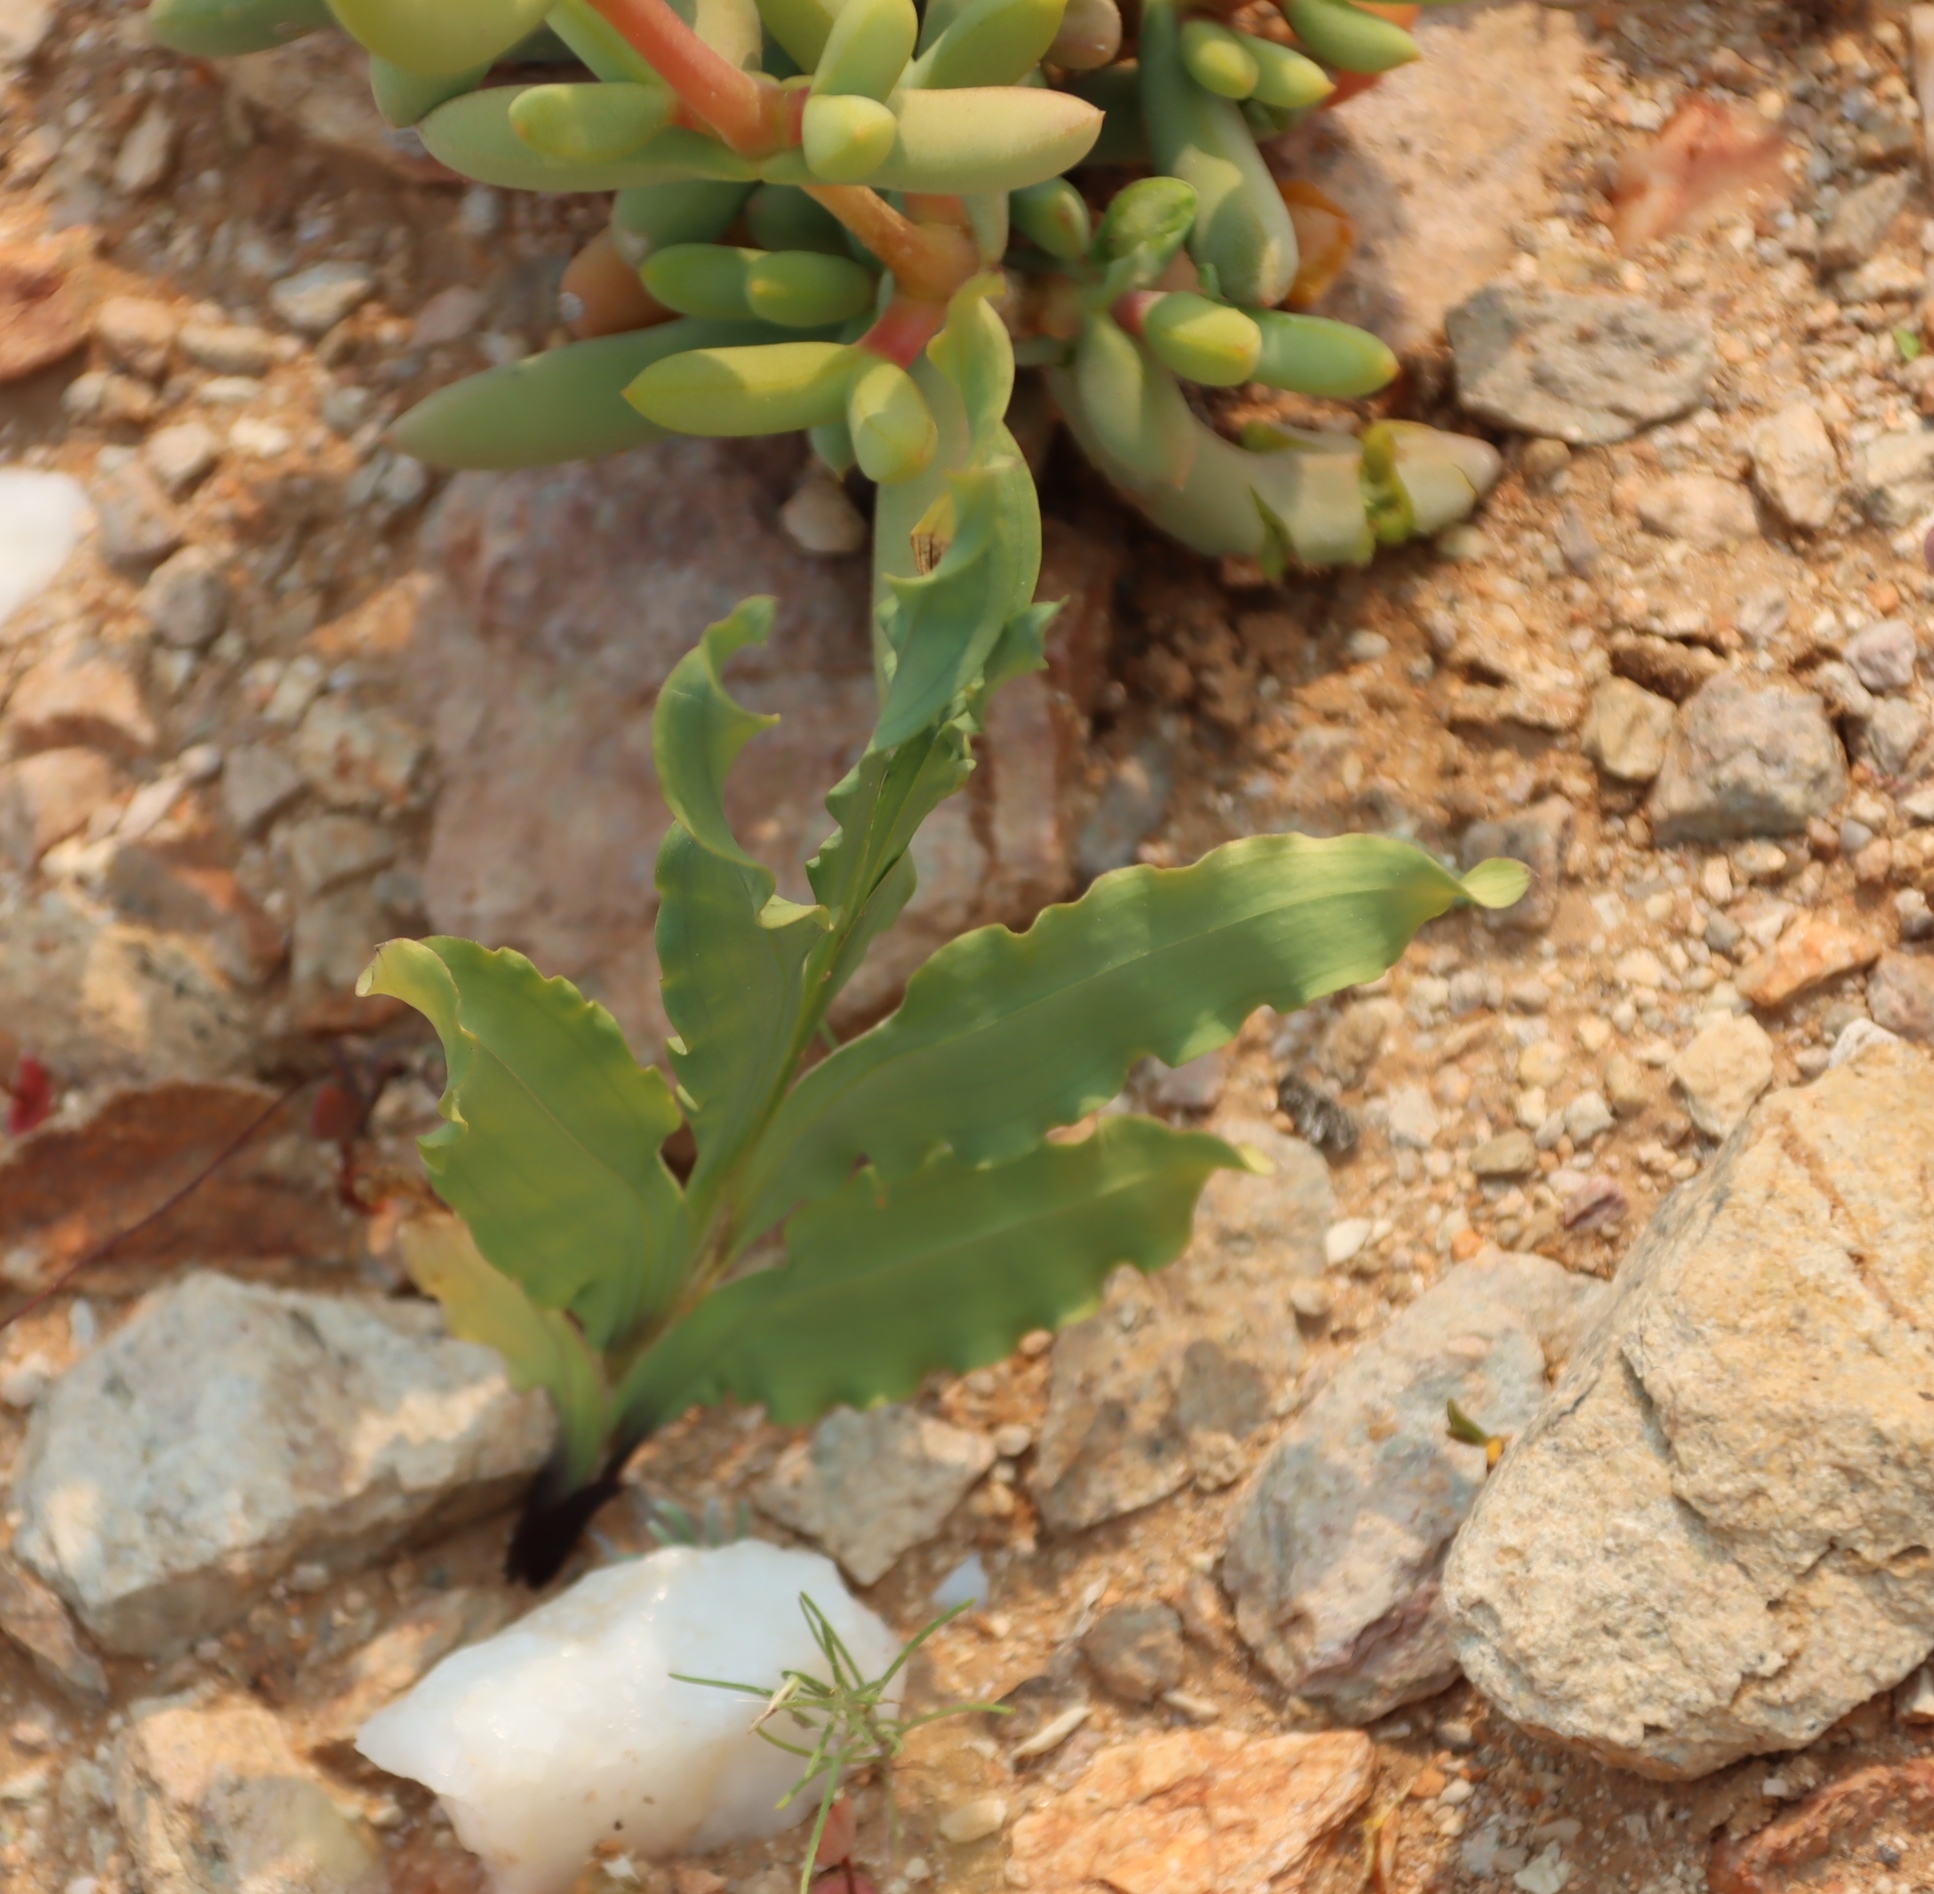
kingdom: Plantae
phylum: Tracheophyta
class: Liliopsida
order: Asparagales
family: Iridaceae
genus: Freesia
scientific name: Freesia viridis
